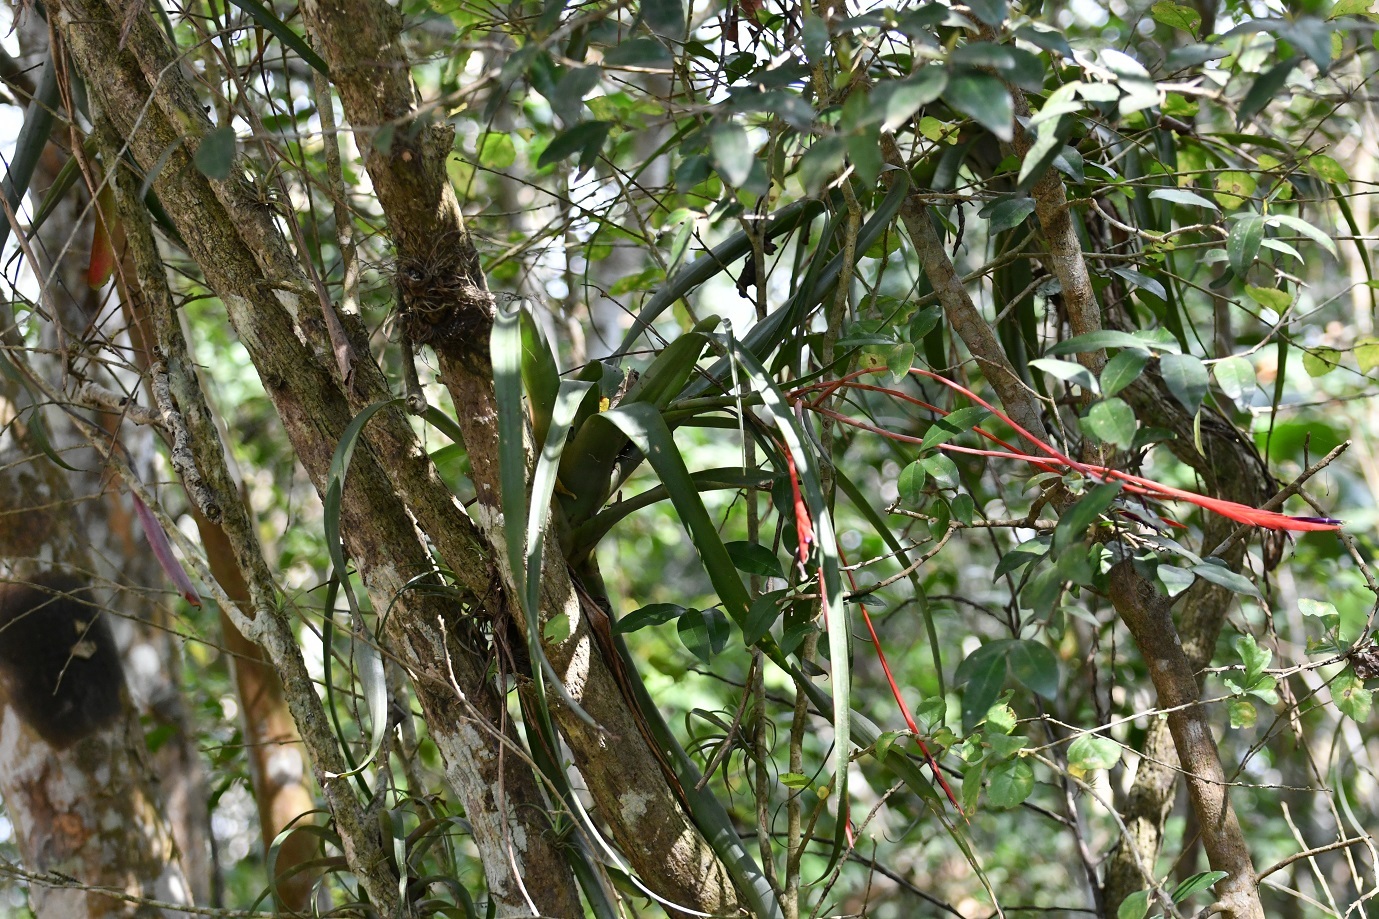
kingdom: Plantae
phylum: Tracheophyta
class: Liliopsida
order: Poales
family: Bromeliaceae
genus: Tillandsia
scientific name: Tillandsia flabellata
